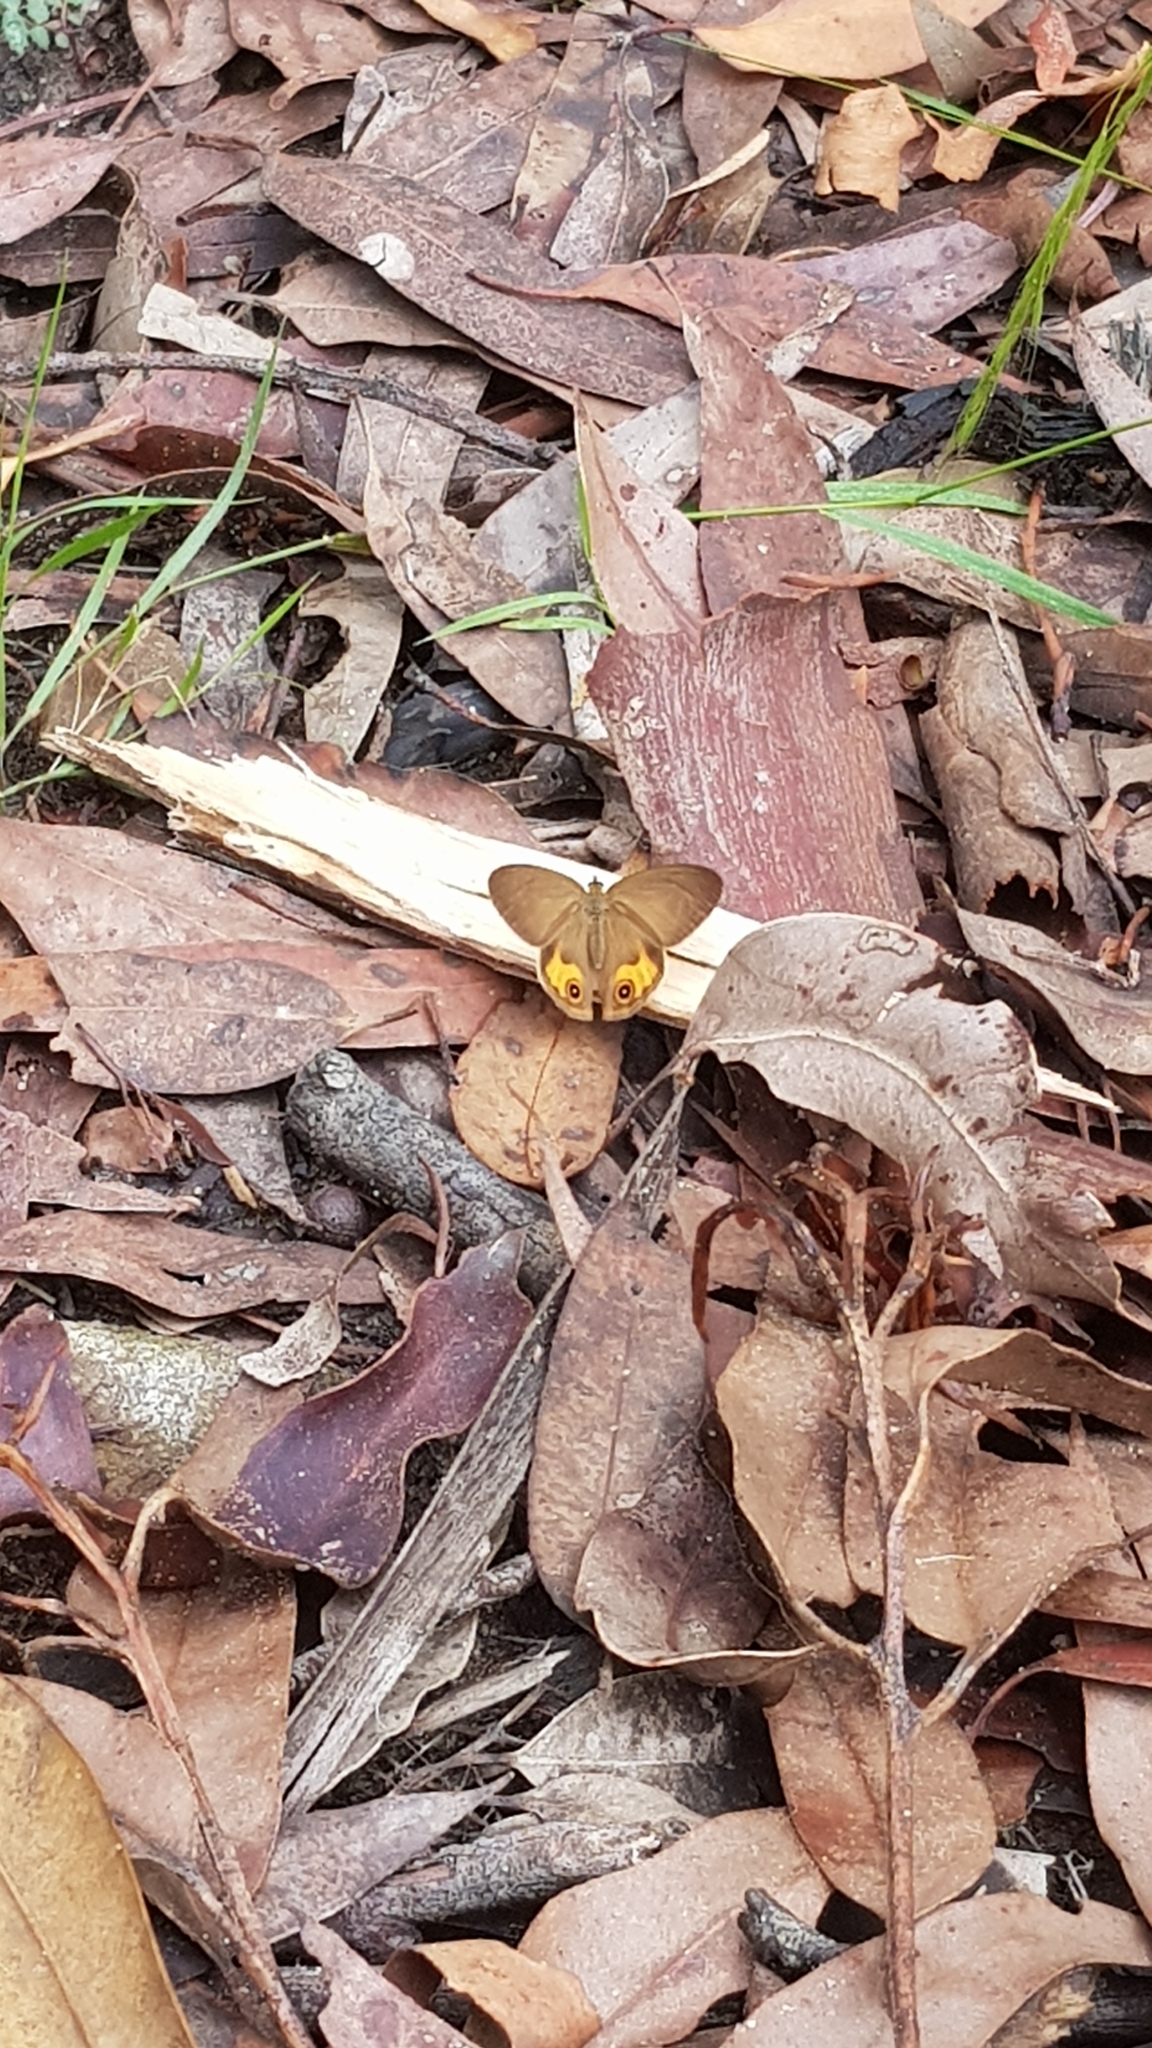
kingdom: Animalia
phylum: Arthropoda
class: Insecta
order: Lepidoptera
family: Nymphalidae
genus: Hypocysta
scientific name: Hypocysta metirius
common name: Brown ringlet
